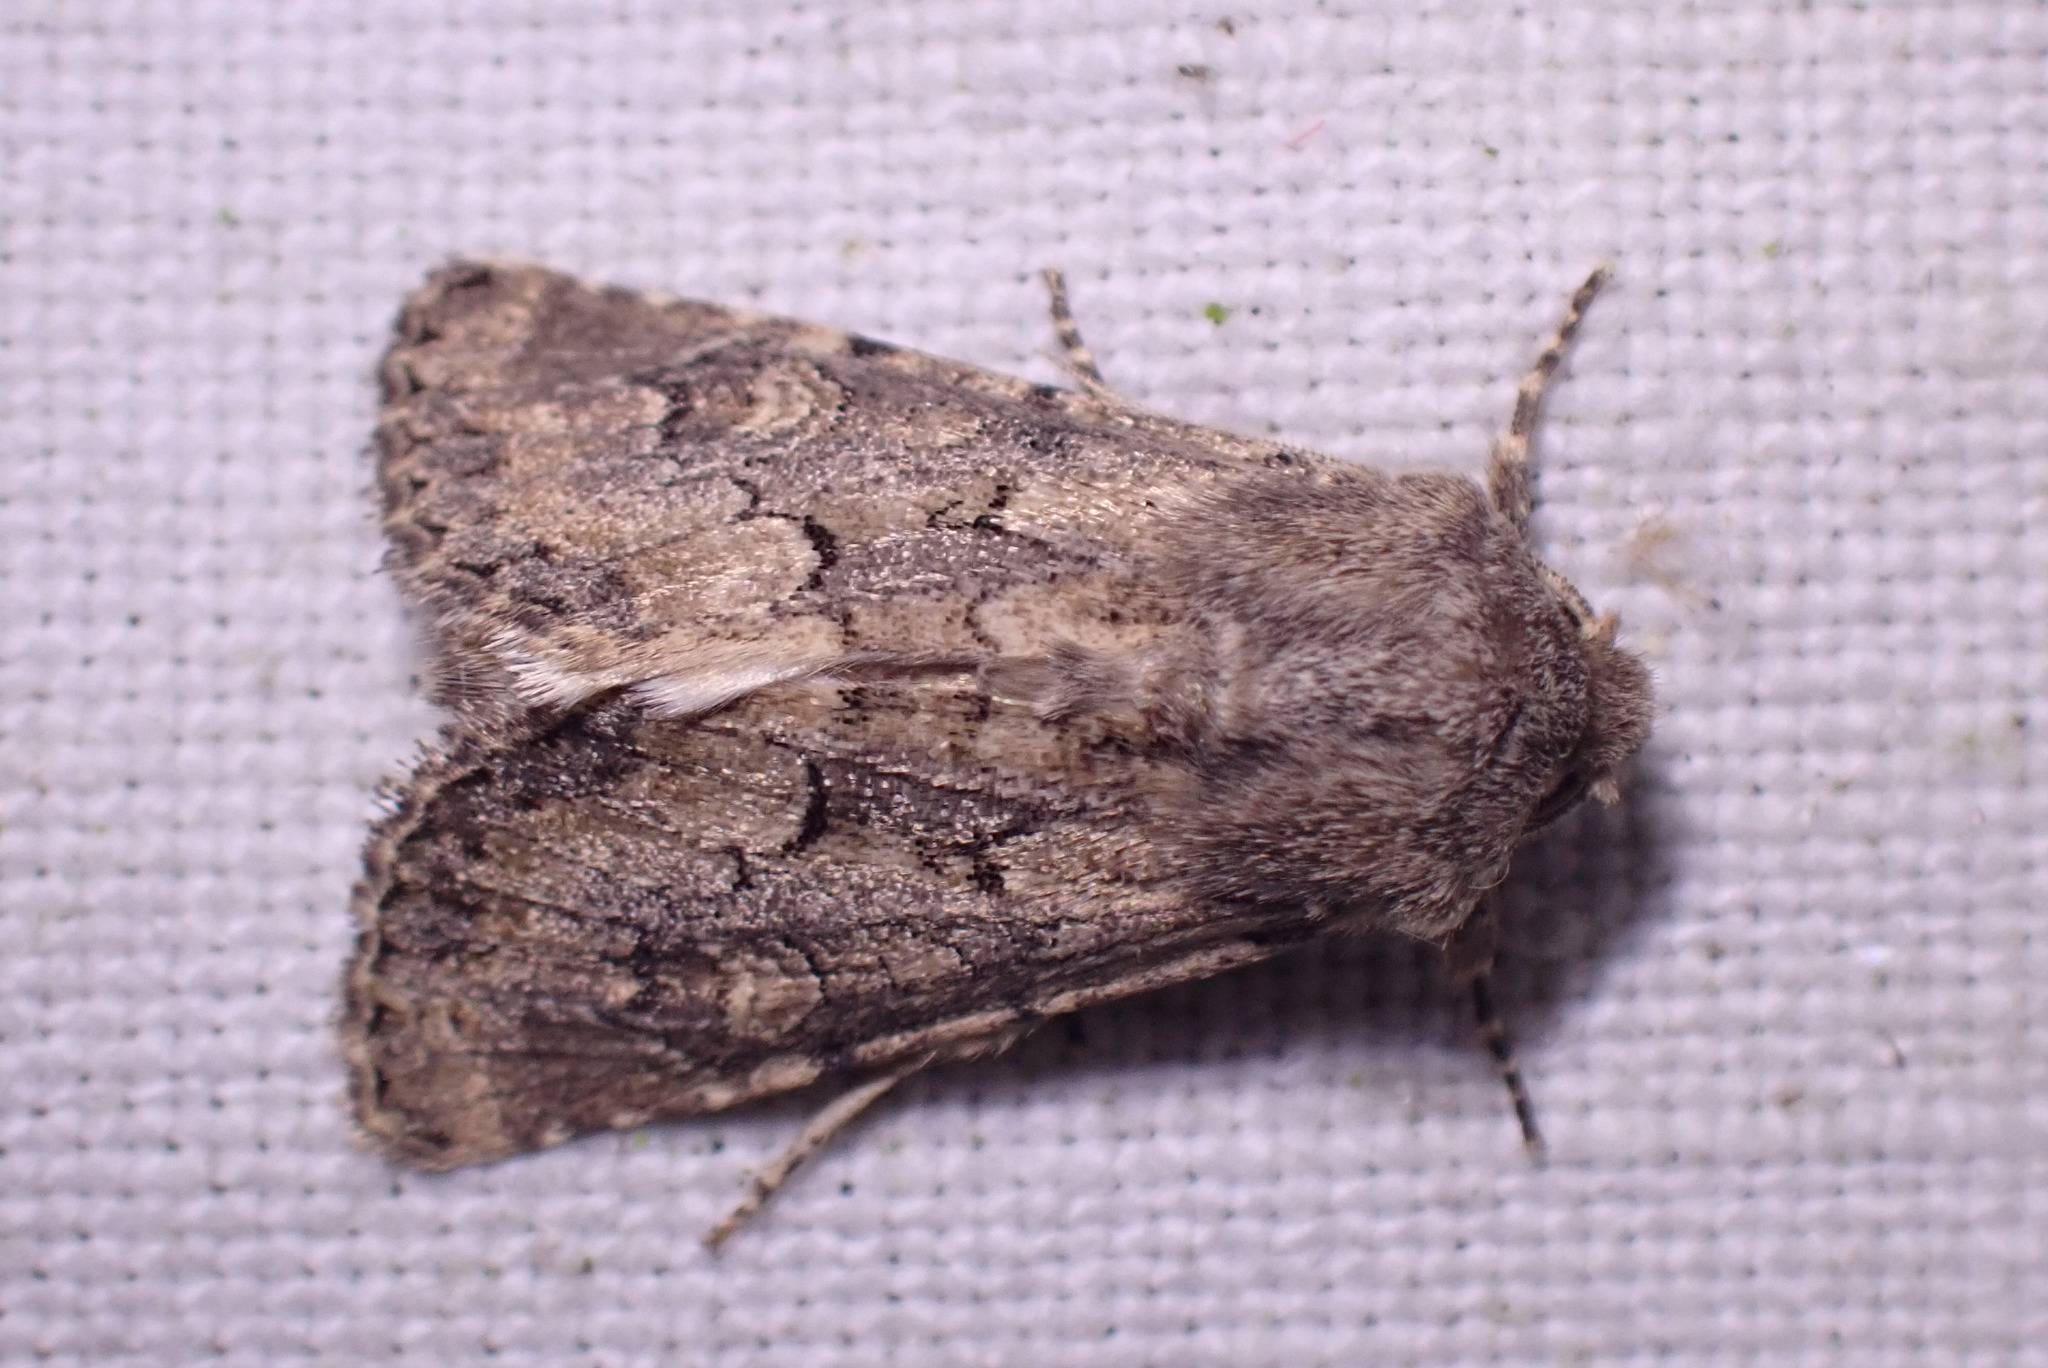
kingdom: Animalia
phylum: Arthropoda
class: Insecta
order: Lepidoptera
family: Noctuidae
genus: Luperina
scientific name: Luperina testacea
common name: Flounced rustic
